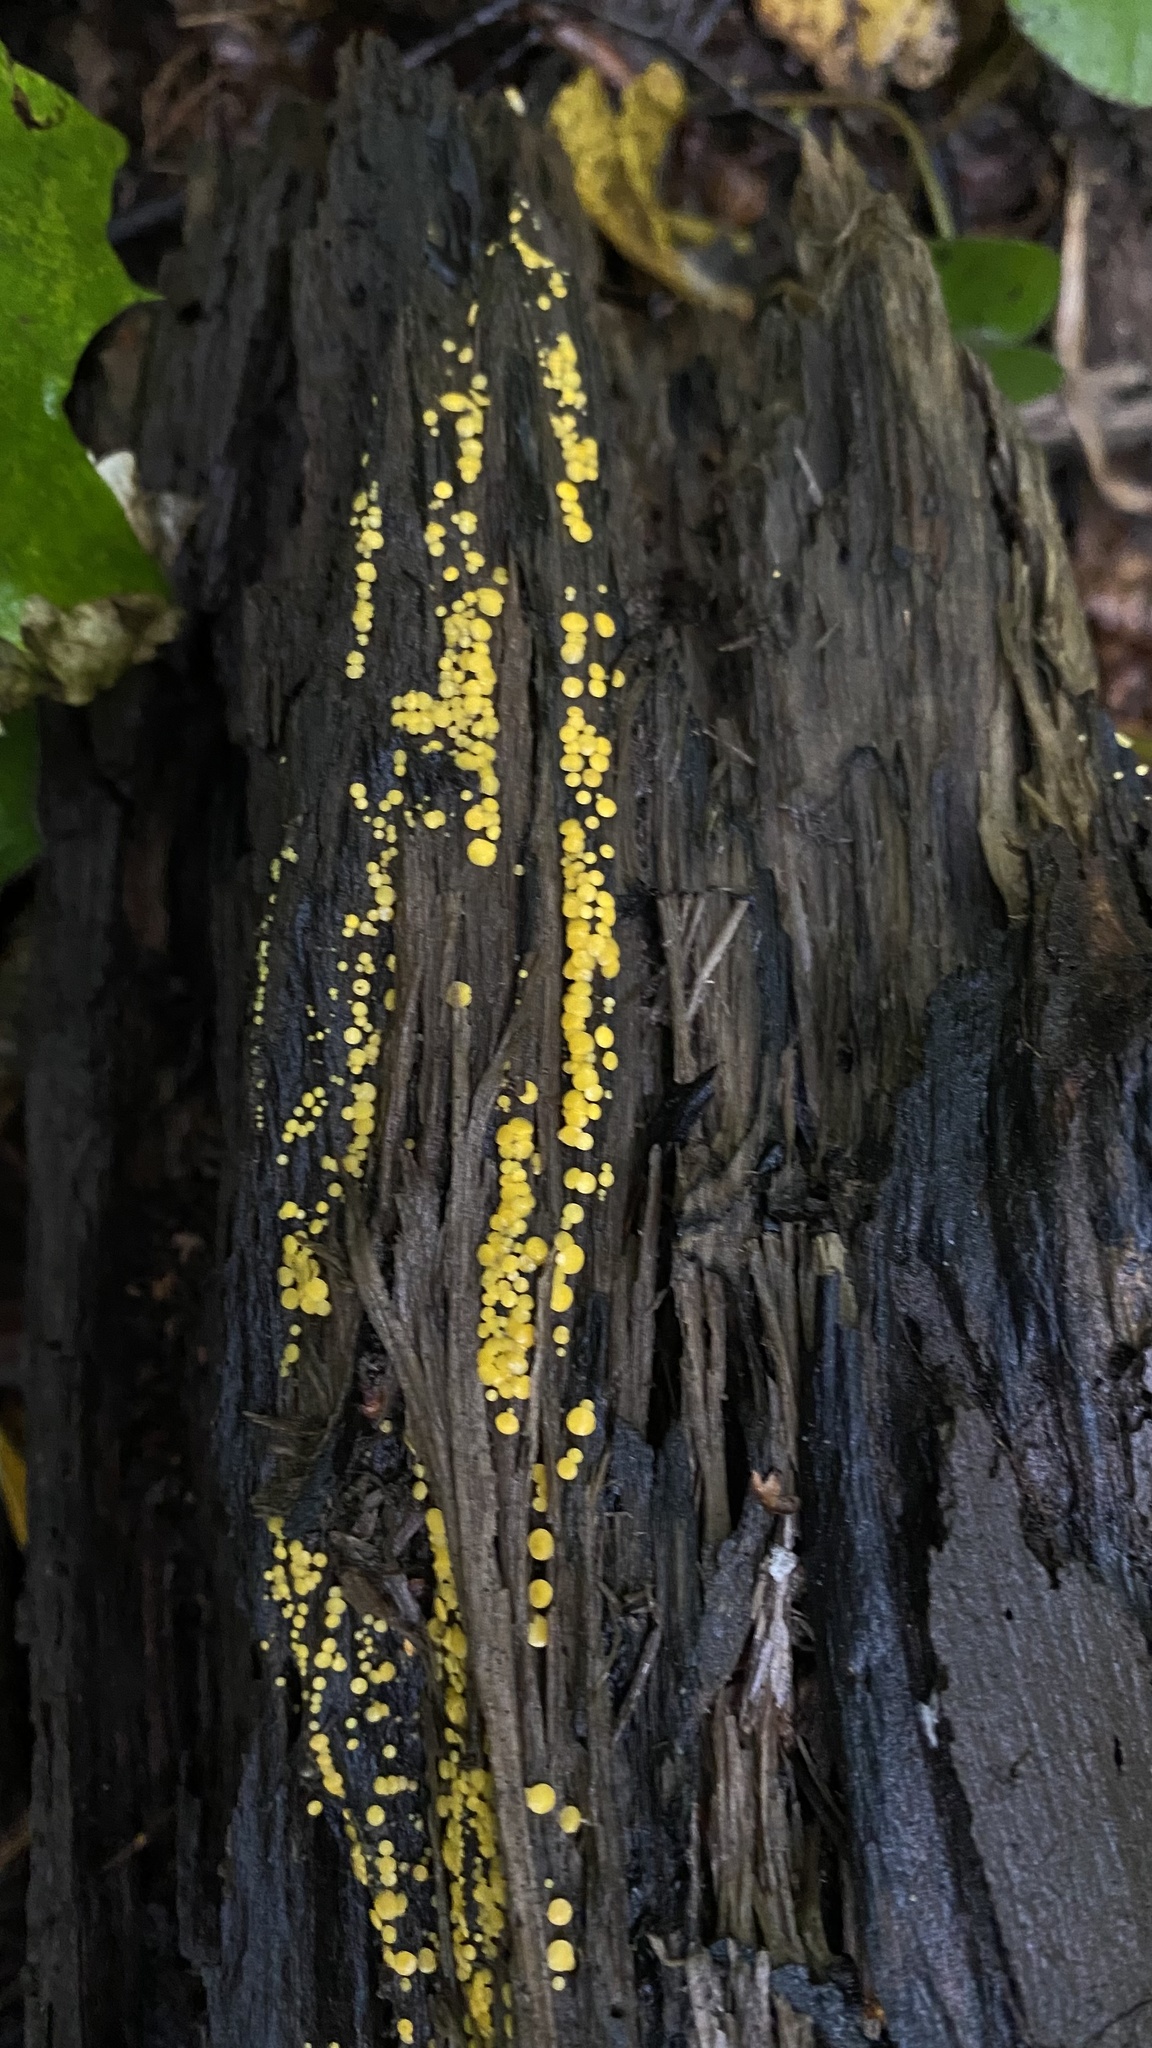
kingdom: Fungi
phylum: Ascomycota
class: Leotiomycetes
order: Helotiales
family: Pezizellaceae
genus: Calycina
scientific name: Calycina citrina
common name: Yellow fairy cups
